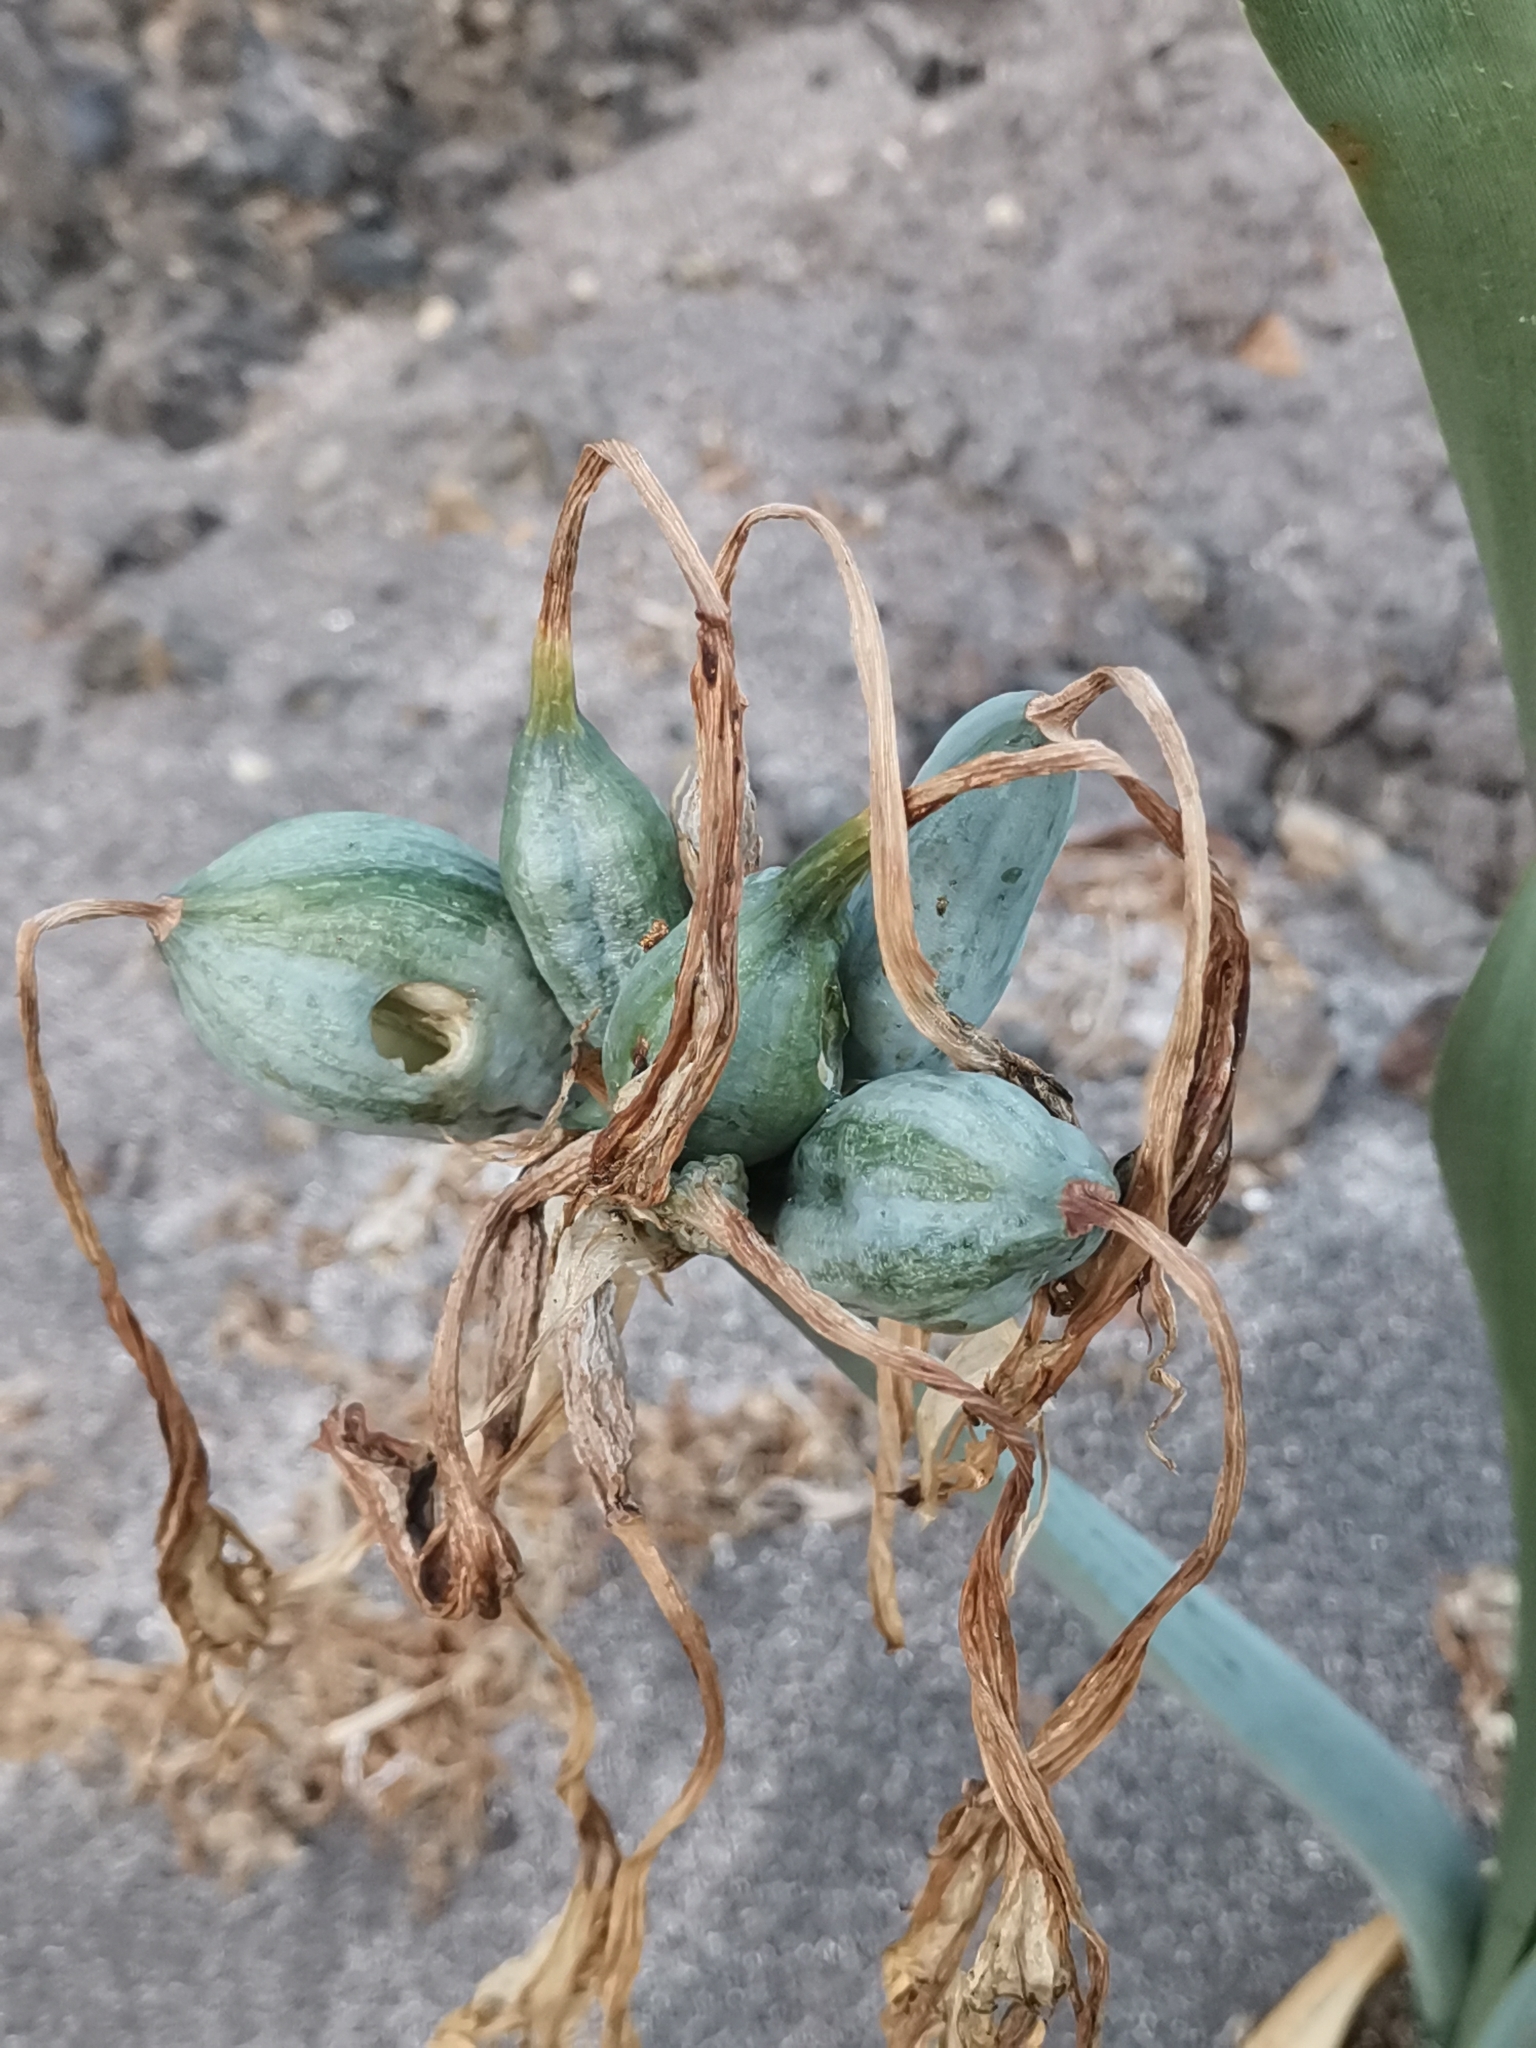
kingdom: Plantae
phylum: Tracheophyta
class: Liliopsida
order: Asparagales
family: Amaryllidaceae
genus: Pancratium
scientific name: Pancratium maritimum
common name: Sea-daffodil
